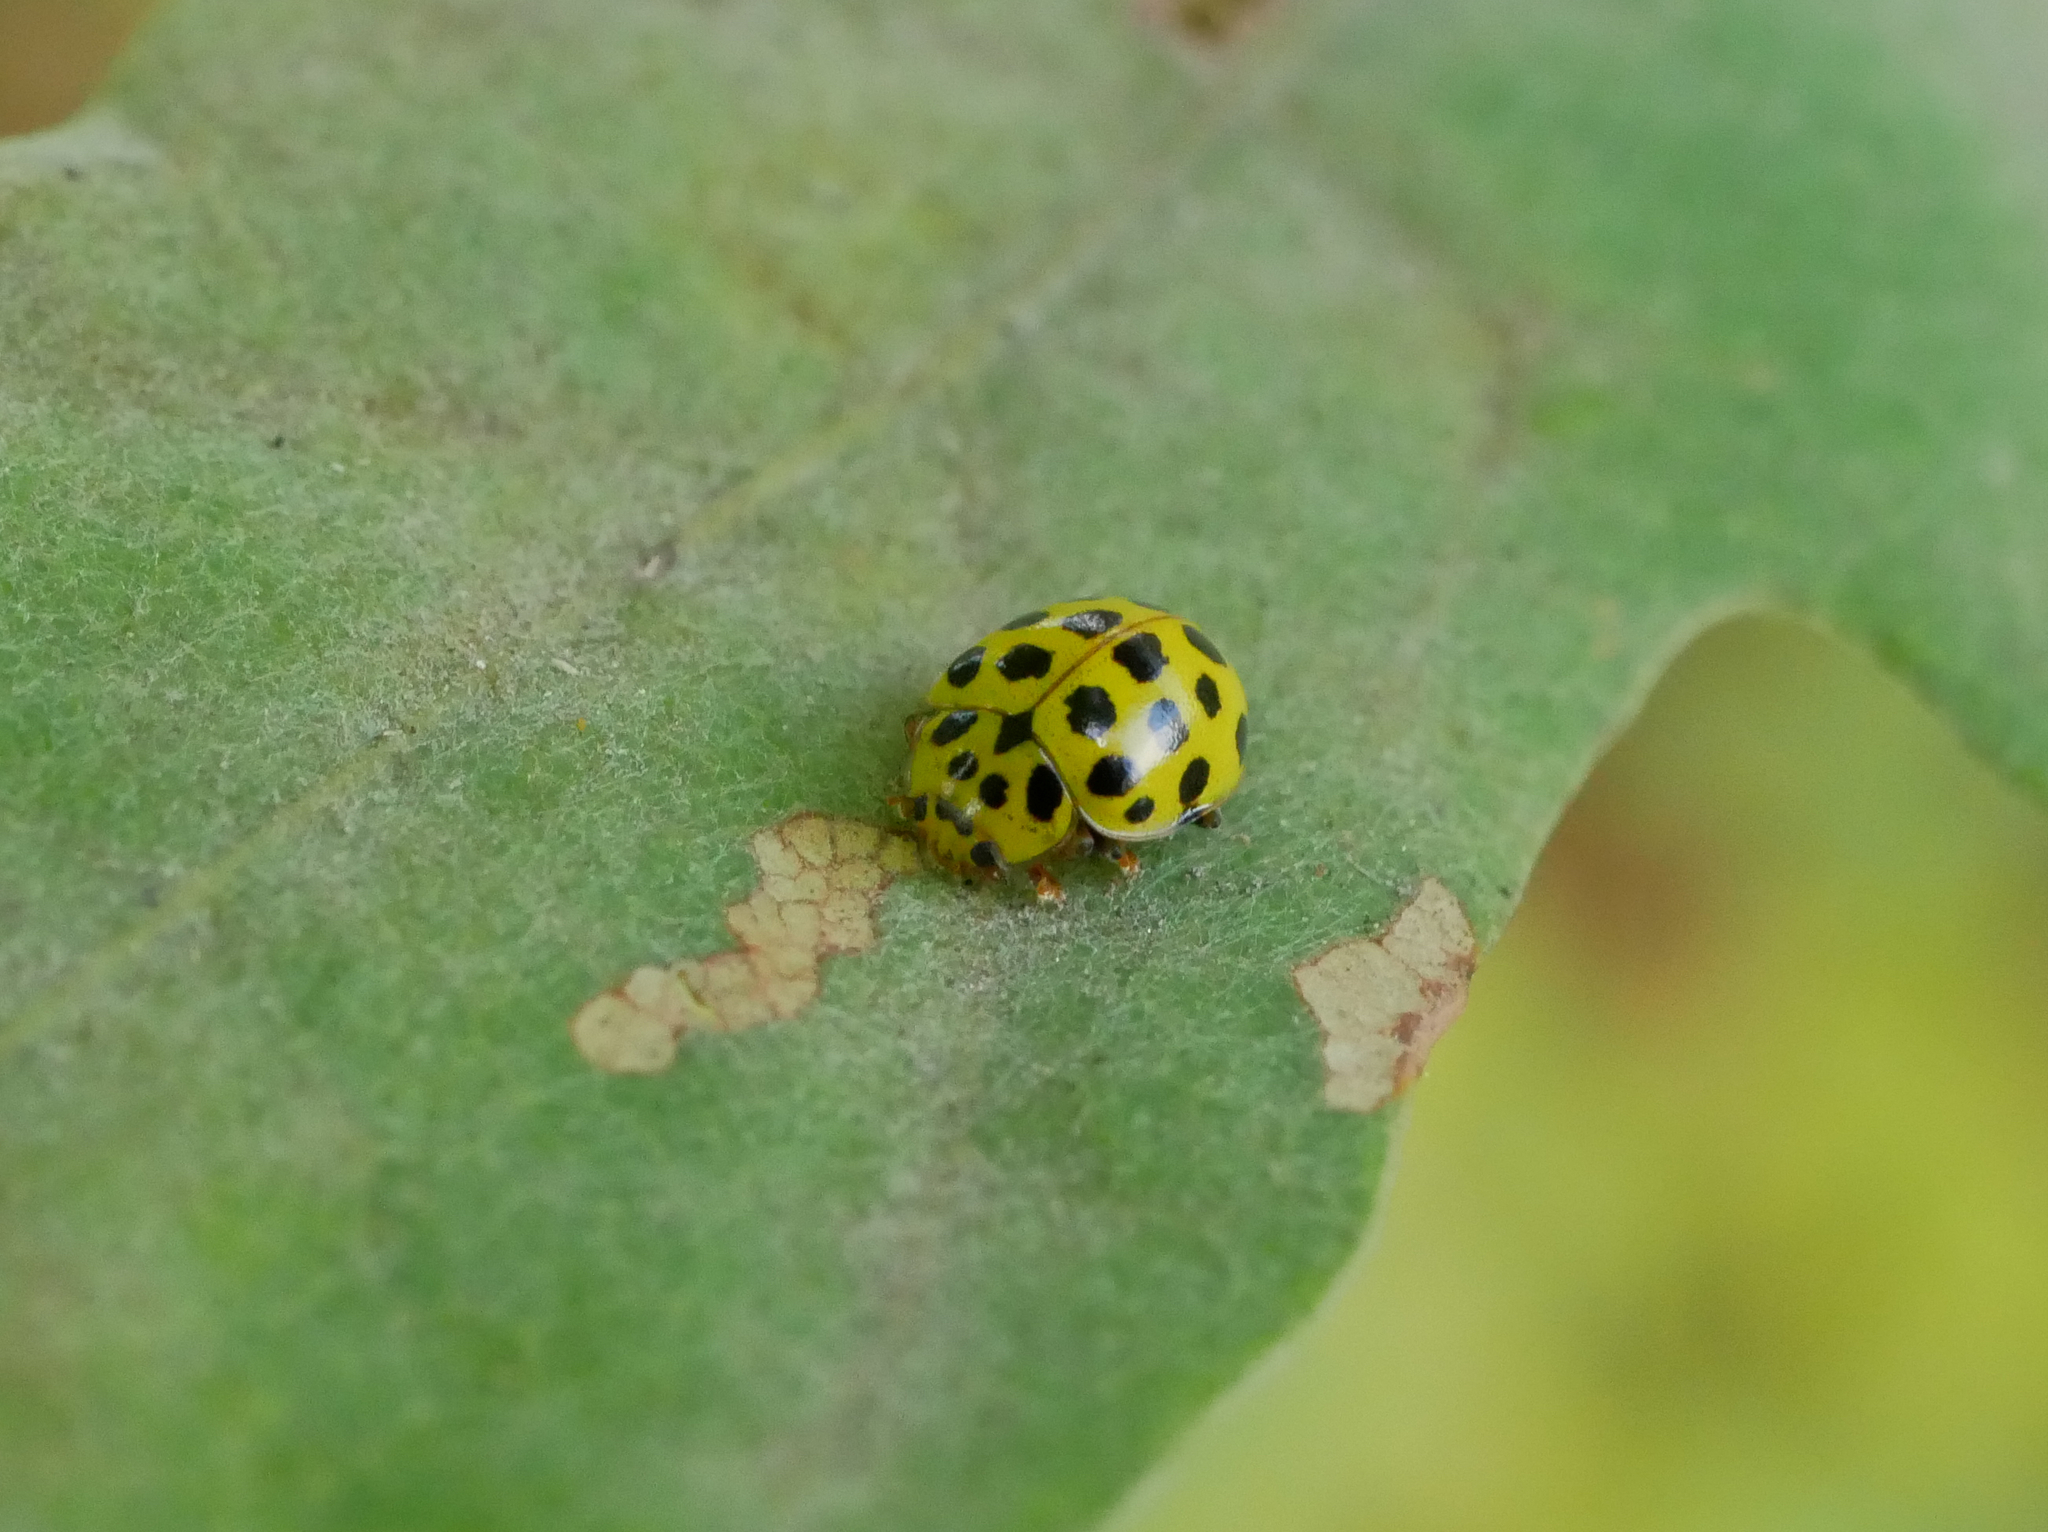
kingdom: Animalia
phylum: Arthropoda
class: Insecta
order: Coleoptera
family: Coccinellidae
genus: Psyllobora
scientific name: Psyllobora vigintiduopunctata
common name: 22-spot ladybird
